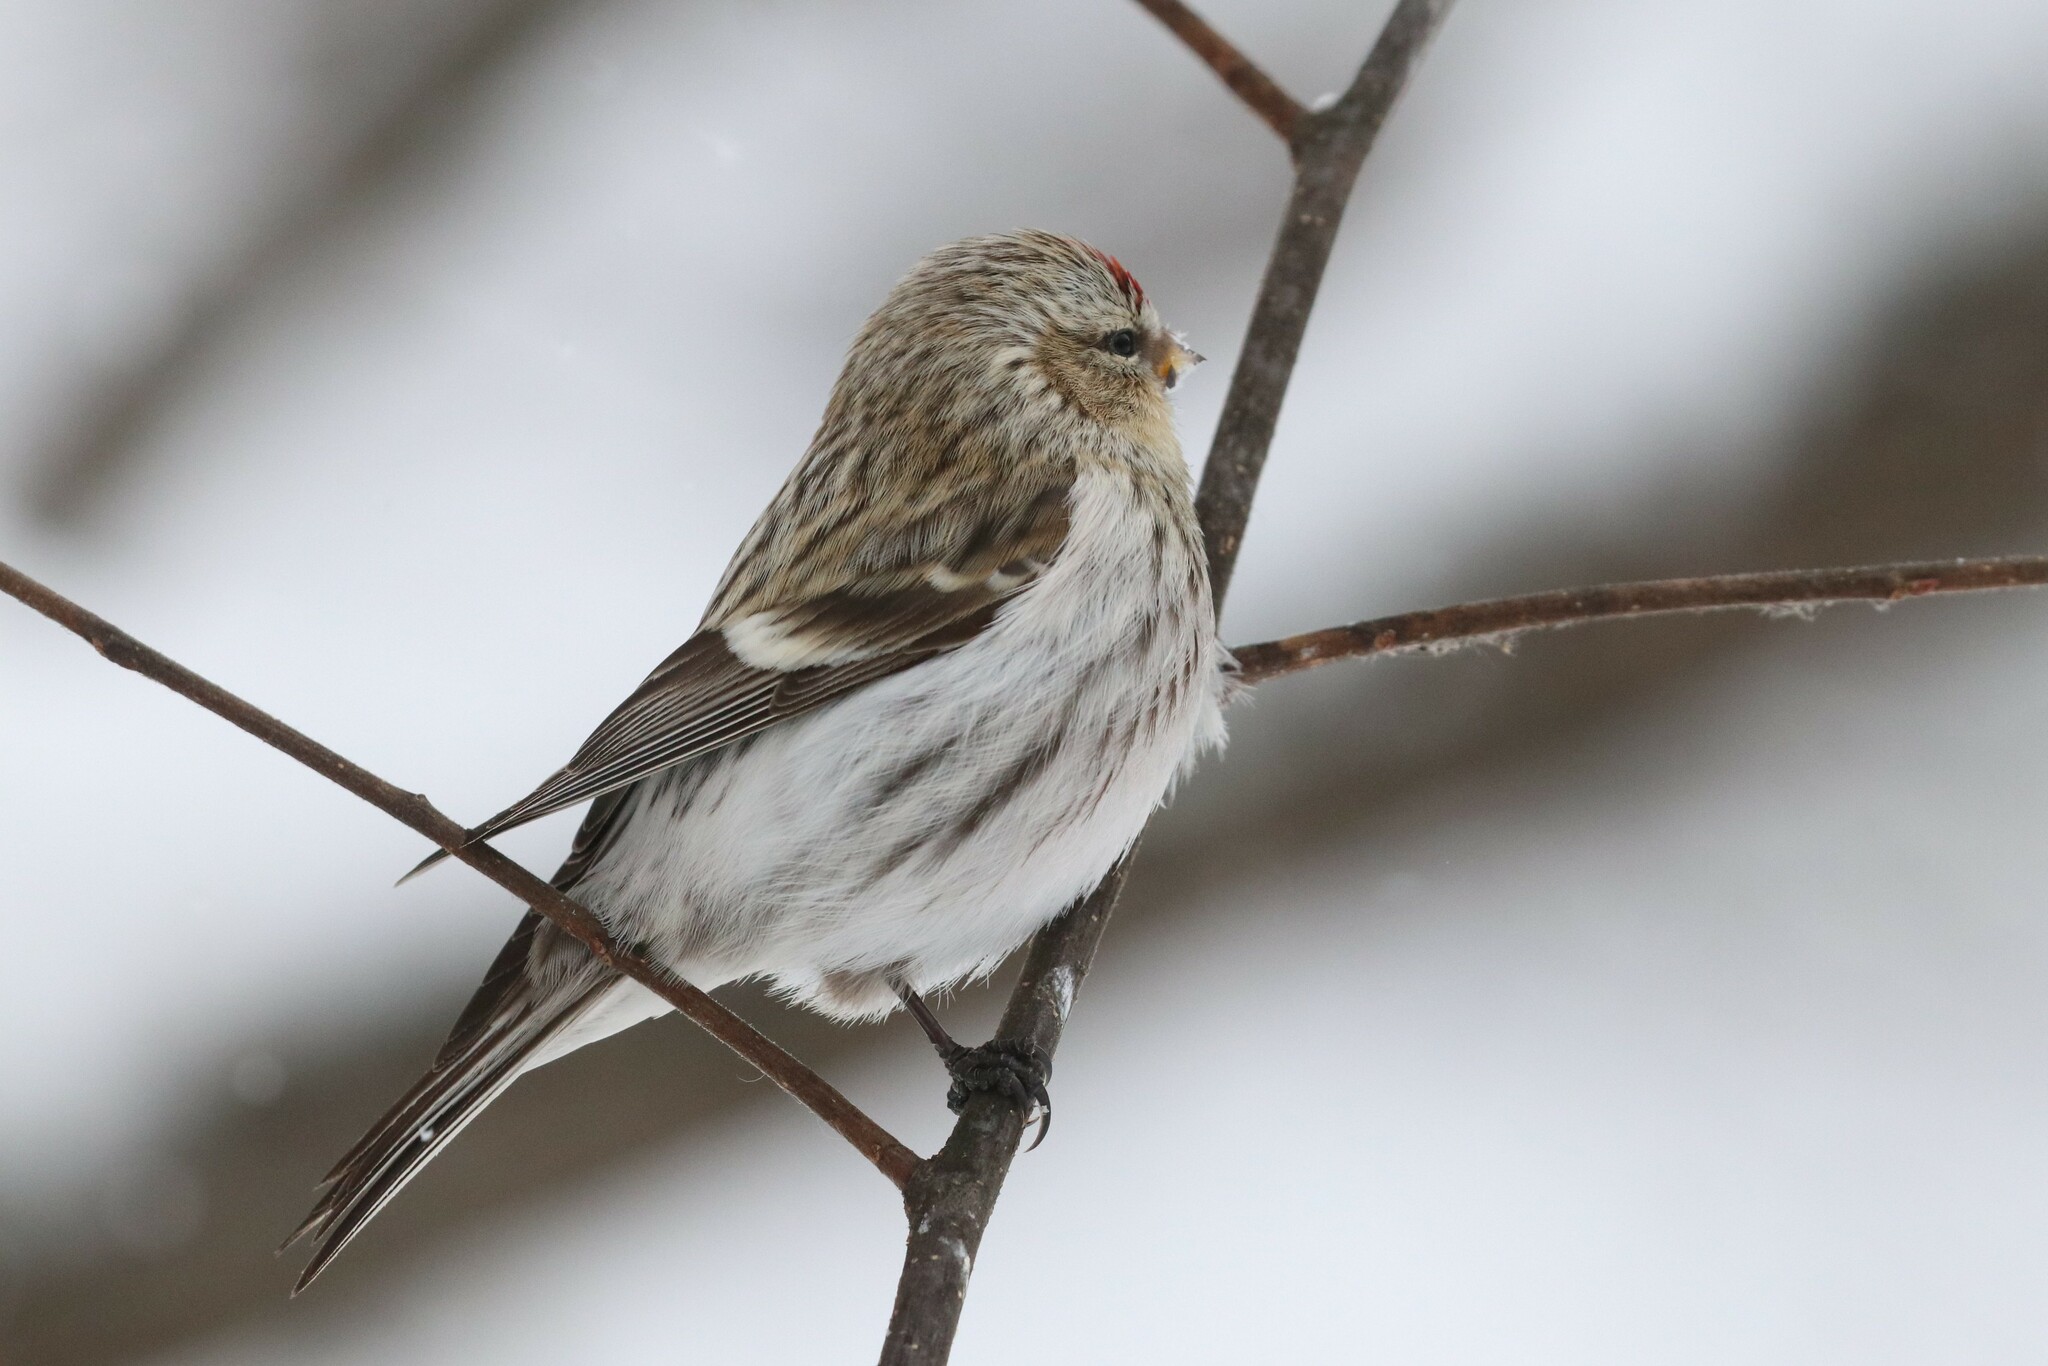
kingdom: Animalia
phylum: Chordata
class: Aves
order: Passeriformes
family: Fringillidae
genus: Acanthis
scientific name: Acanthis flammea
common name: Common redpoll
